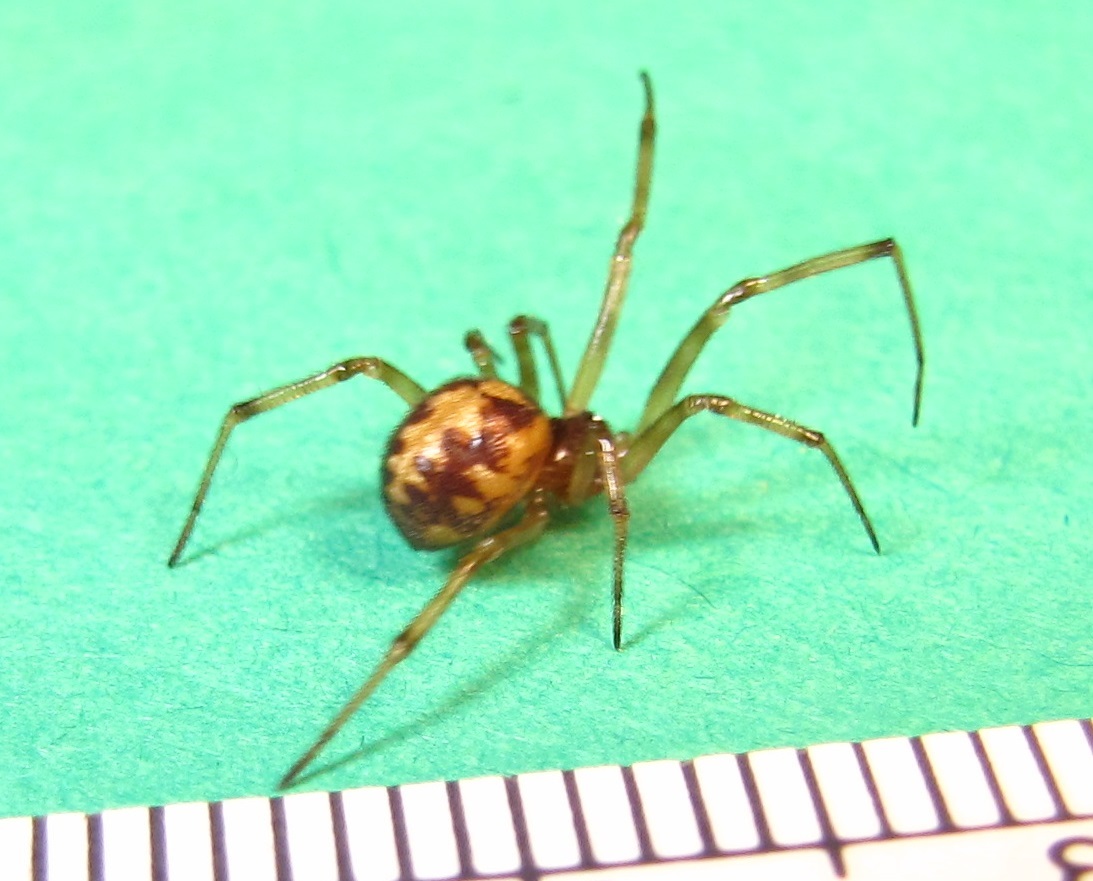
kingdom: Animalia
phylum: Arthropoda
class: Arachnida
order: Araneae
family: Theridiidae
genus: Steatoda
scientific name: Steatoda triangulosa
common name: Triangulate bud spider
